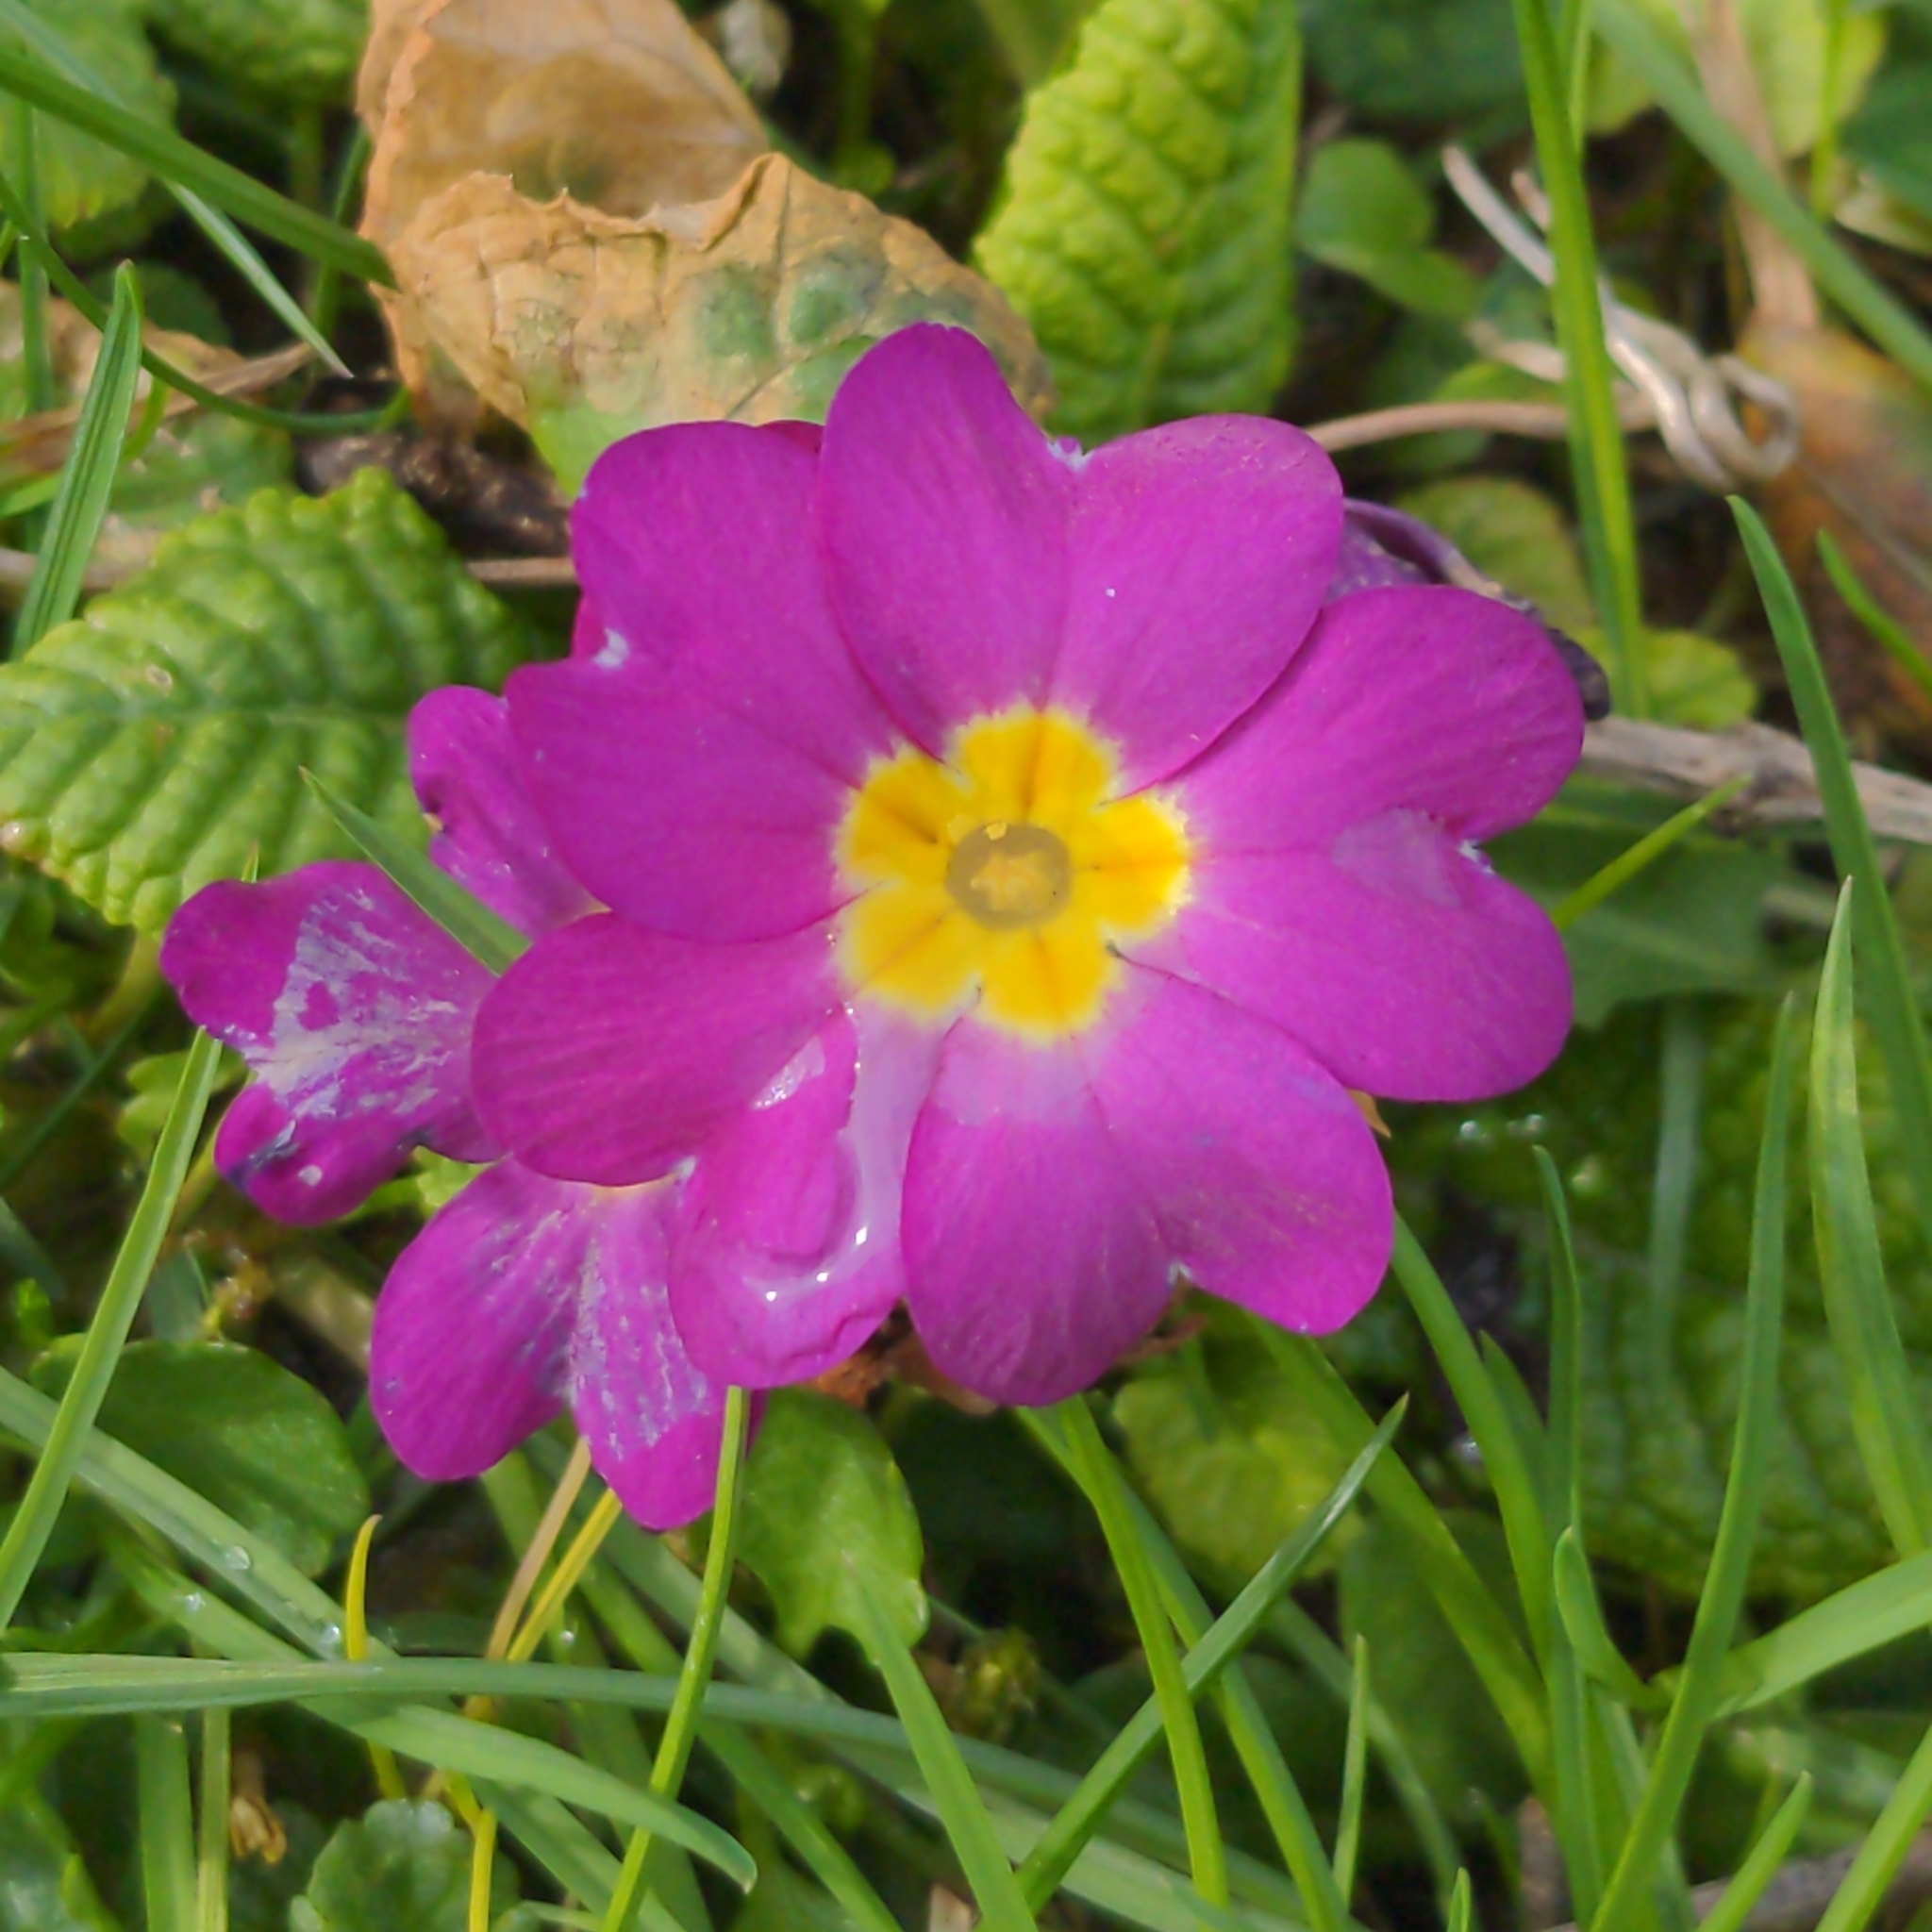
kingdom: Plantae
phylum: Tracheophyta
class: Magnoliopsida
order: Ericales
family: Primulaceae
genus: Primula
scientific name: Primula vulgaris
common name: Primrose
